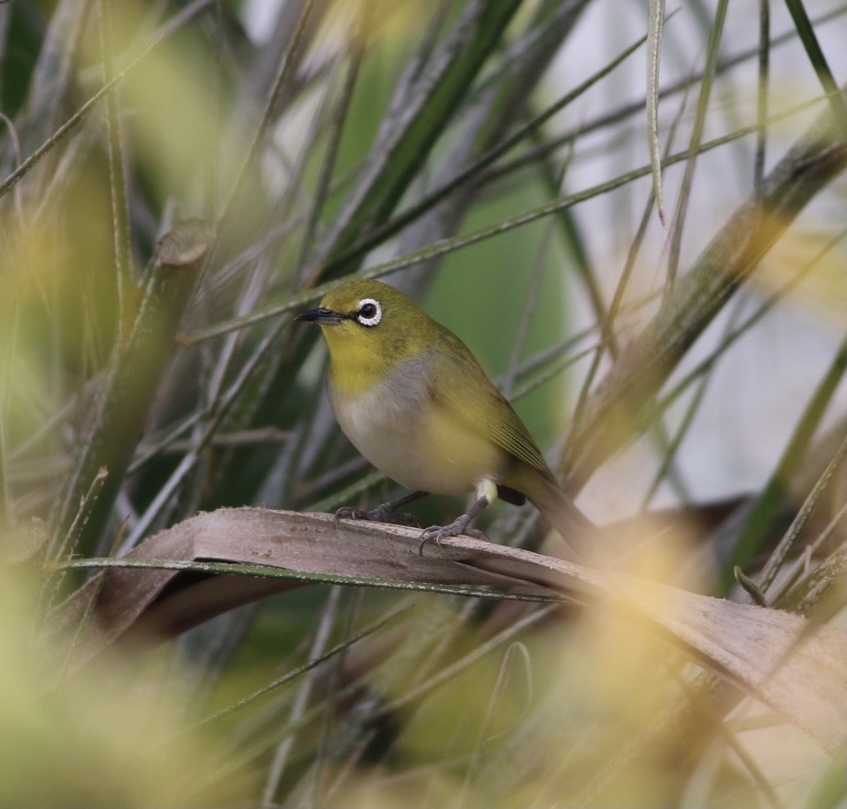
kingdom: Animalia
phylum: Chordata
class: Aves
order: Passeriformes
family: Zosteropidae
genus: Zosterops
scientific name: Zosterops simplex
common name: Swinhoe's white-eye
